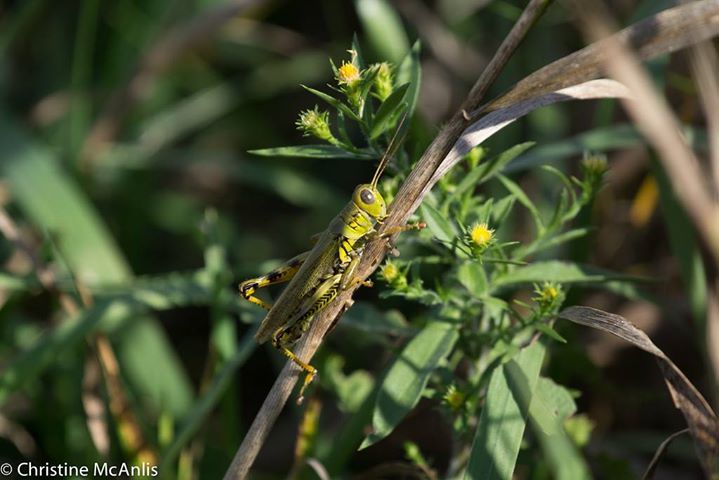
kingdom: Animalia
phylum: Arthropoda
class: Insecta
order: Orthoptera
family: Acrididae
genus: Melanoplus
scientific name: Melanoplus differentialis
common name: Differential grasshopper
